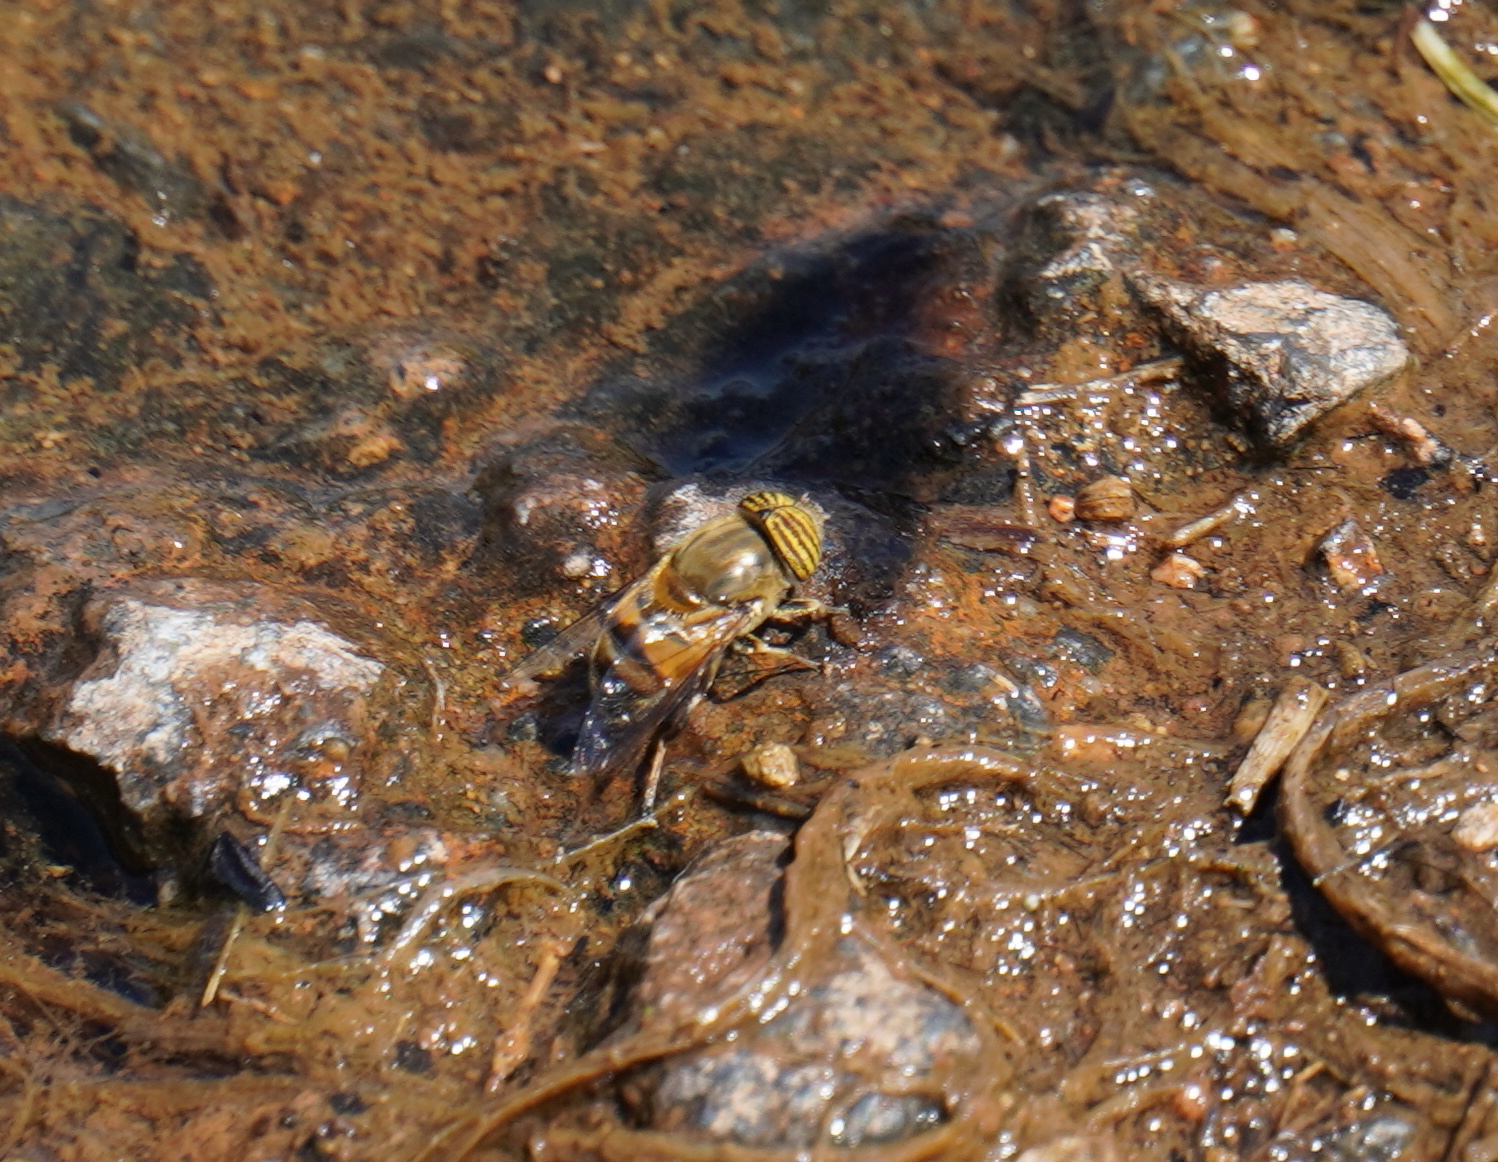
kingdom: Animalia
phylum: Arthropoda
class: Insecta
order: Diptera
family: Syrphidae
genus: Eristalinus
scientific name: Eristalinus taeniops
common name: Syrphid fly
